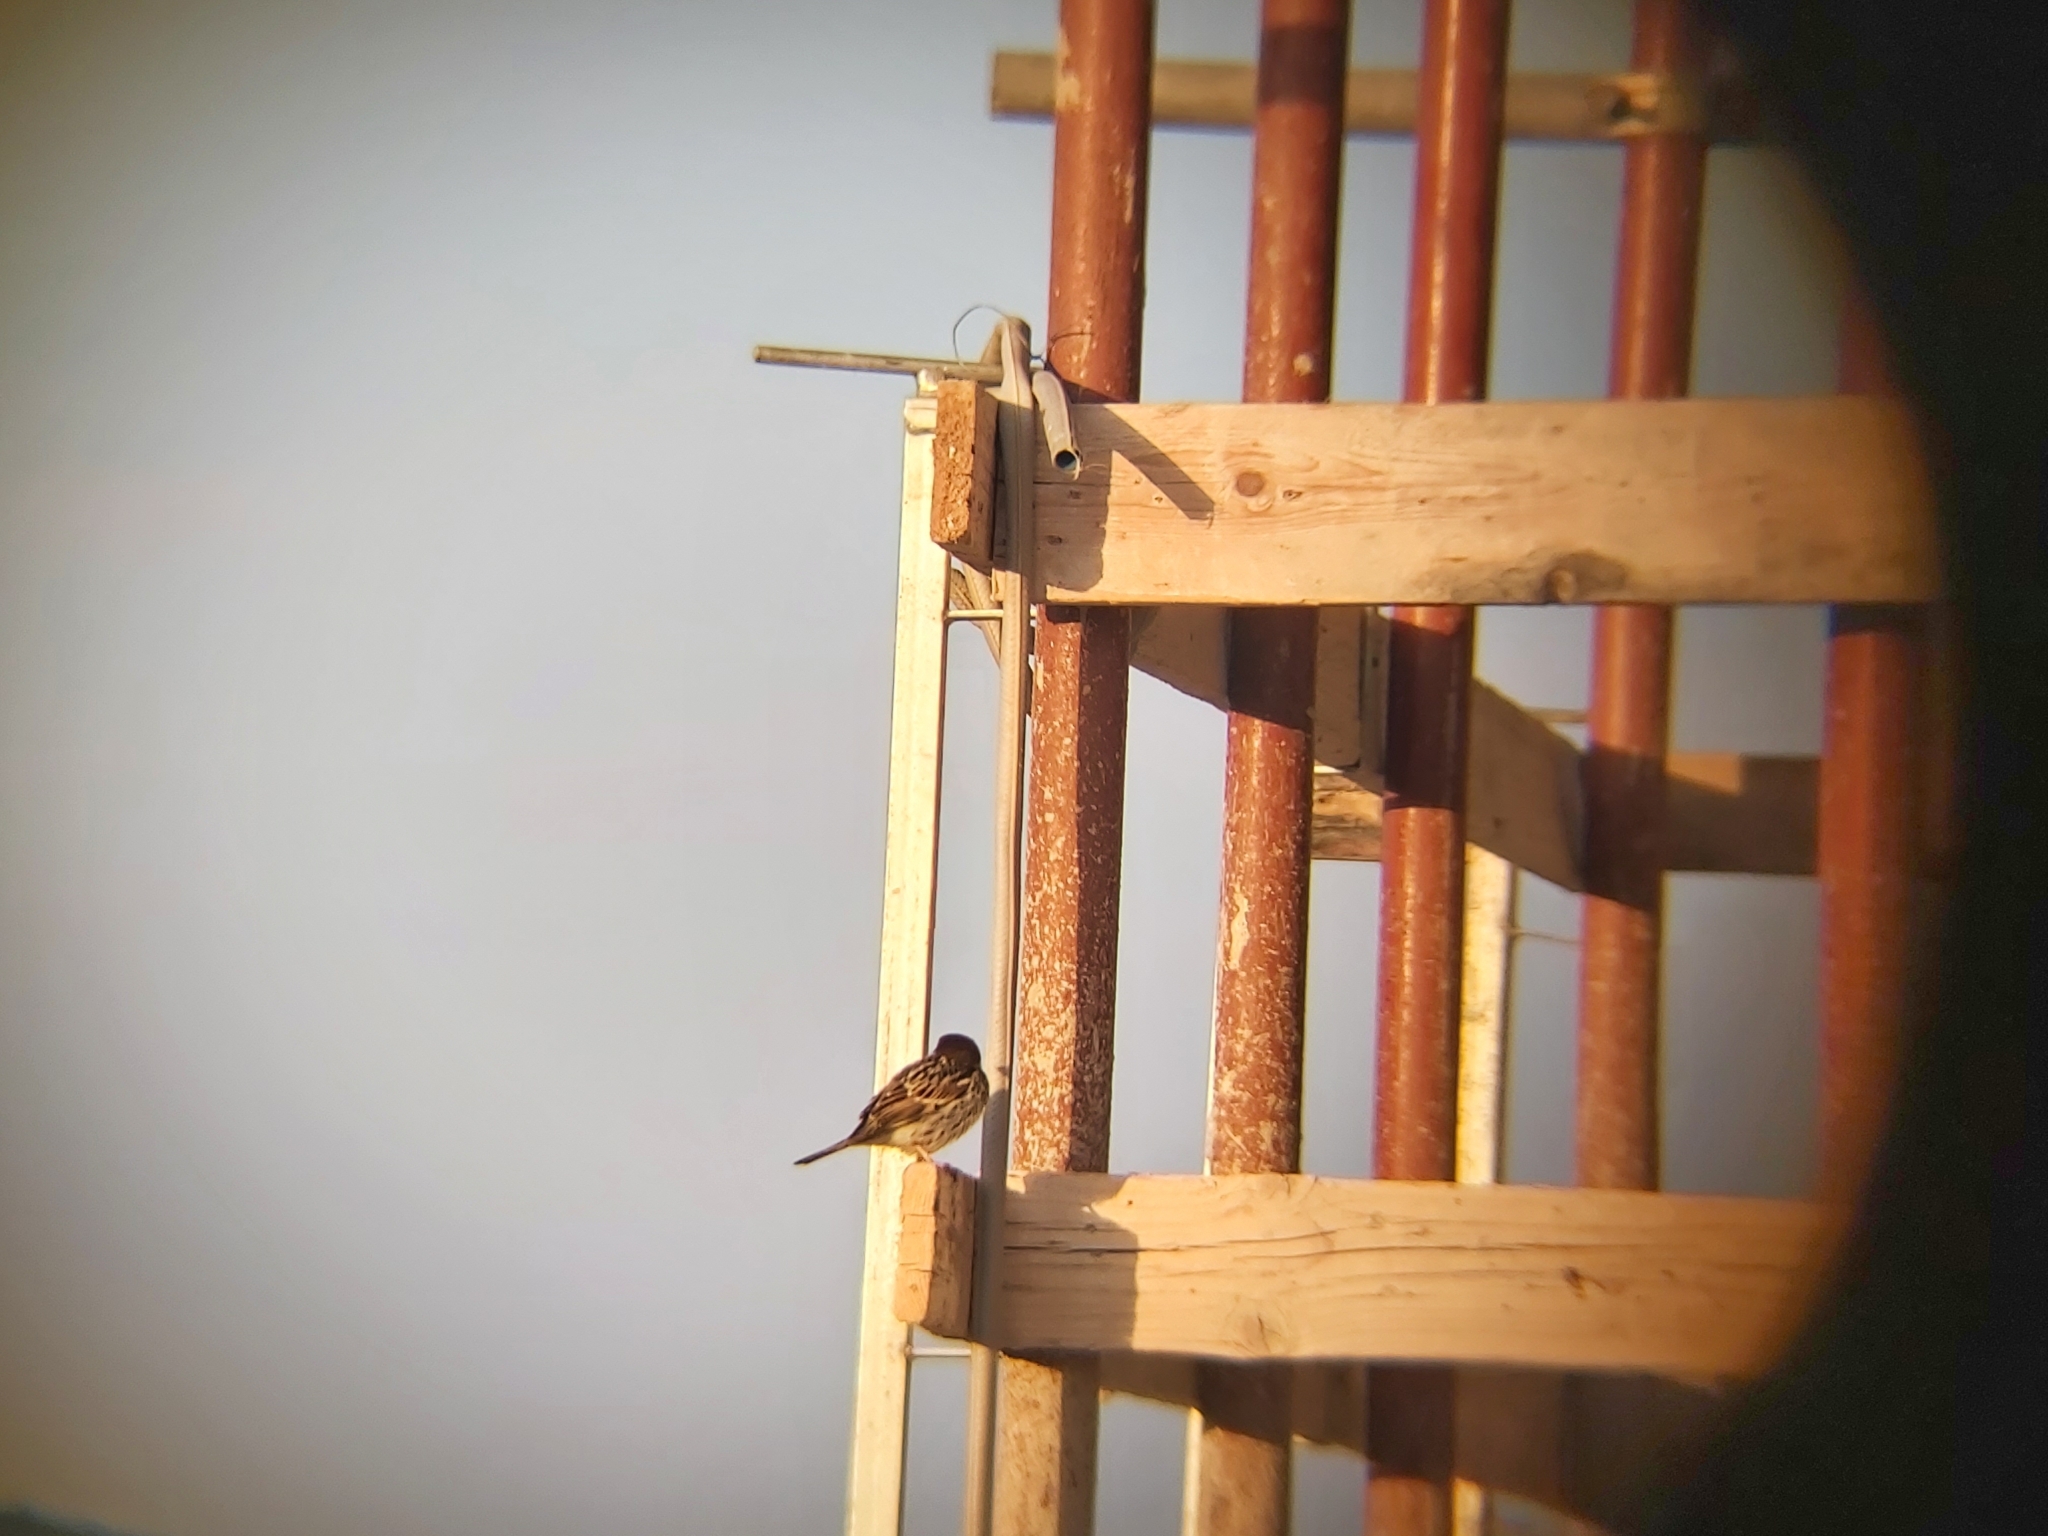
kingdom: Animalia
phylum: Chordata
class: Aves
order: Passeriformes
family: Passeridae
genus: Passer
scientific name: Passer hispaniolensis
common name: Spanish sparrow
